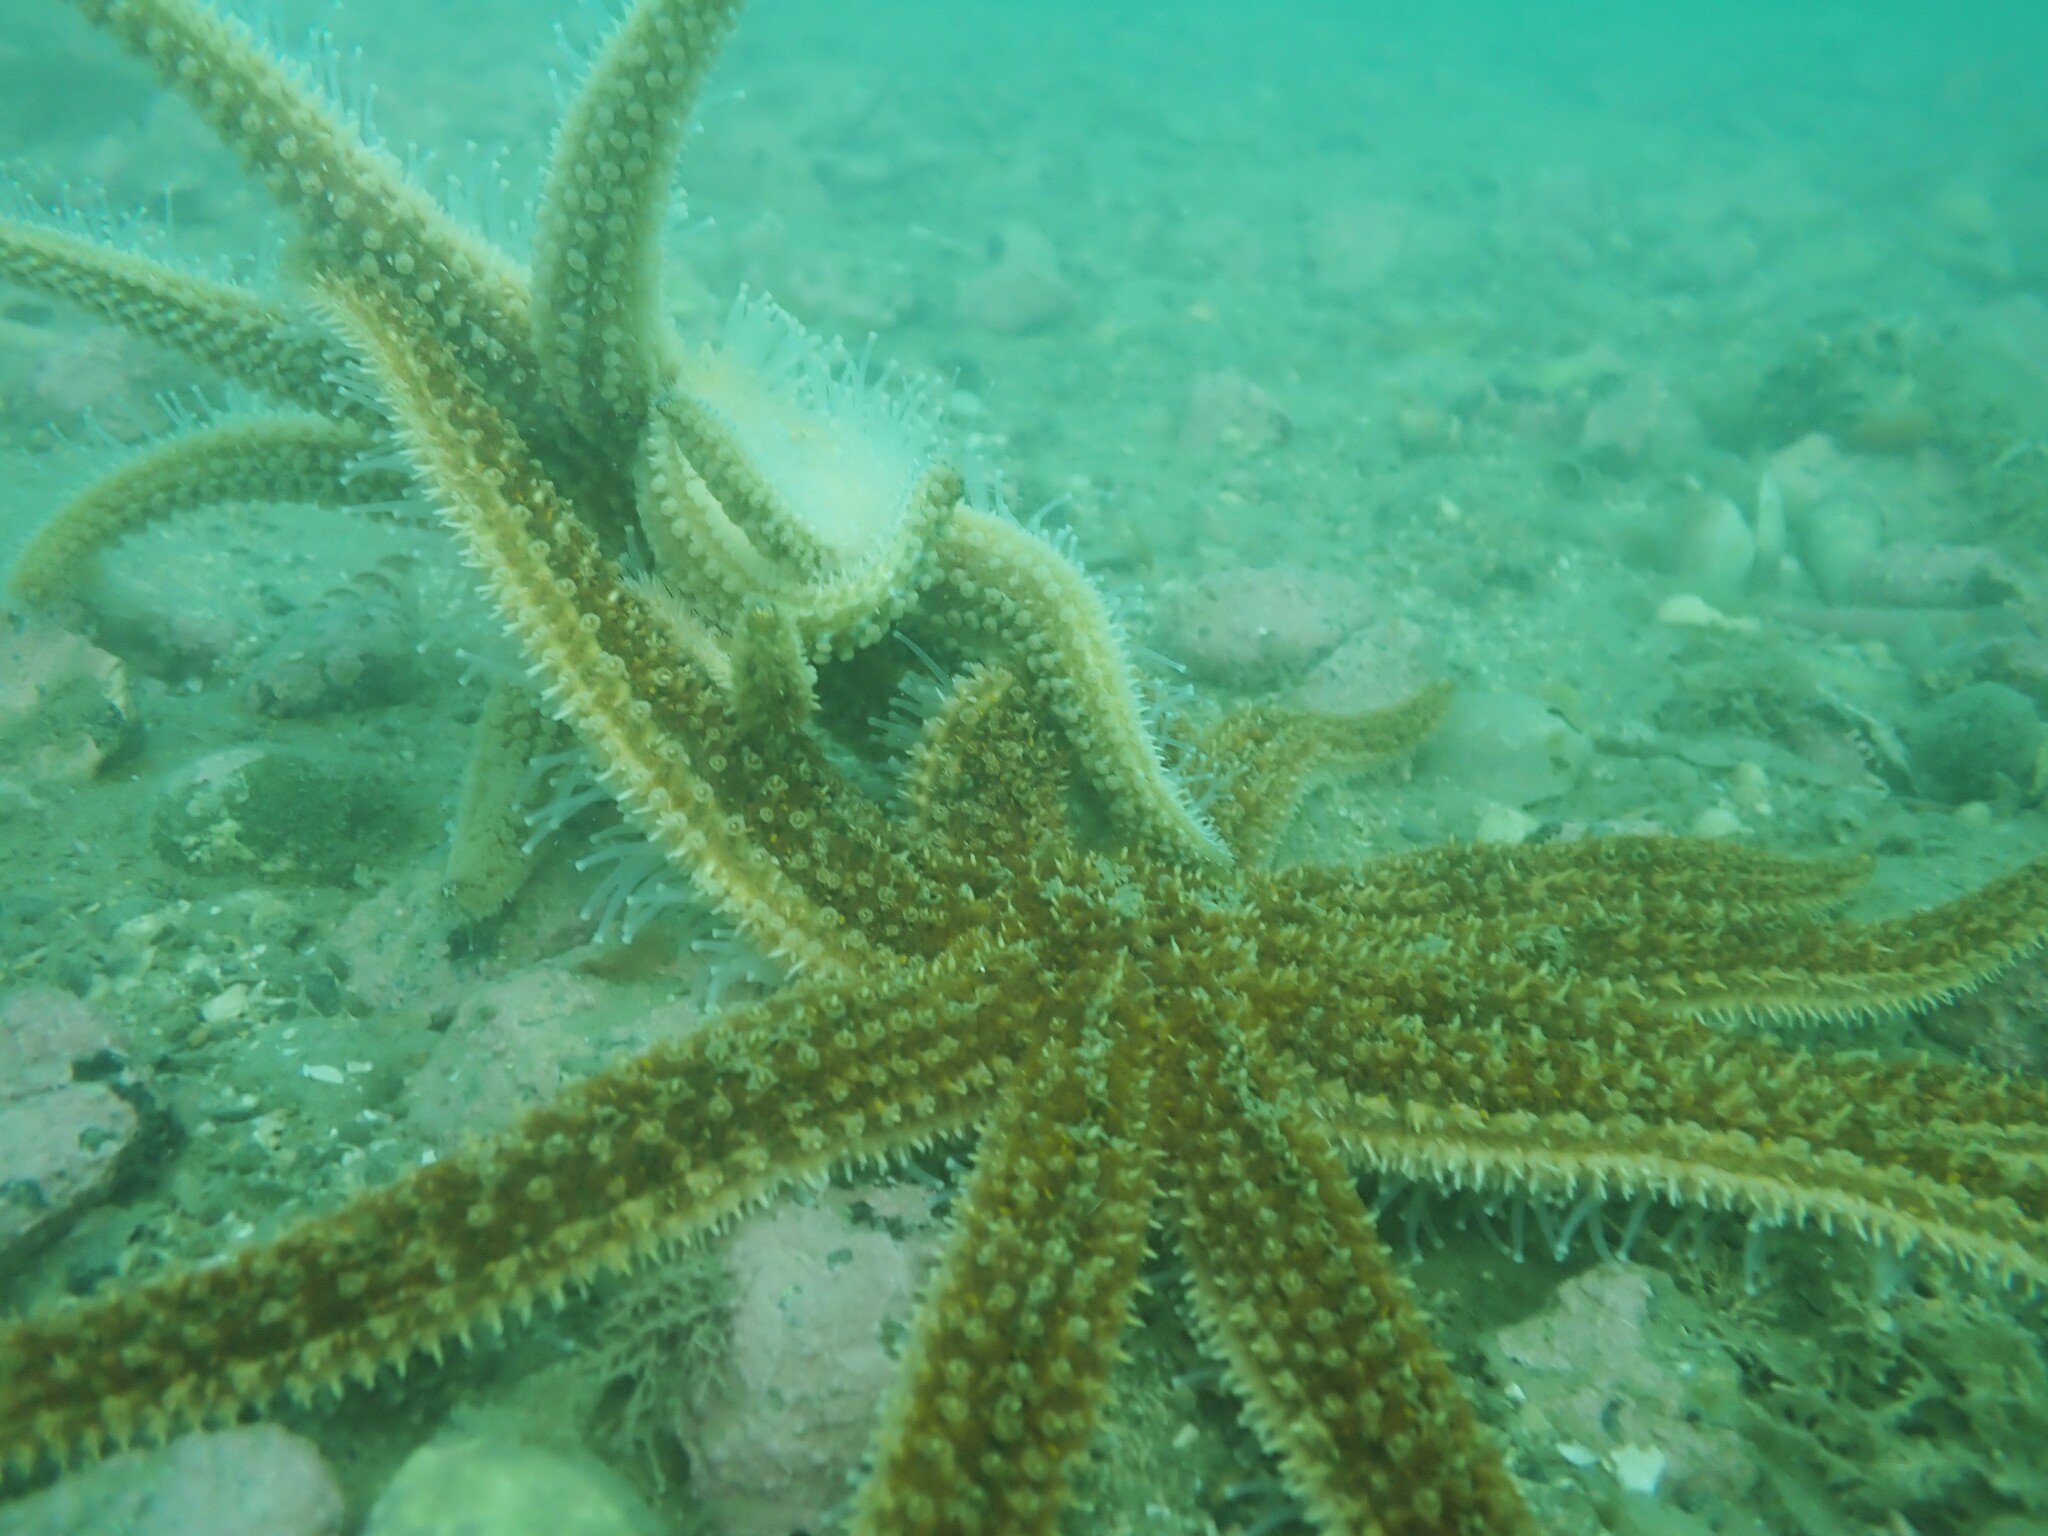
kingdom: Animalia
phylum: Echinodermata
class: Asteroidea
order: Forcipulatida
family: Asteriidae
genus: Coscinasterias
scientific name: Coscinasterias muricata
